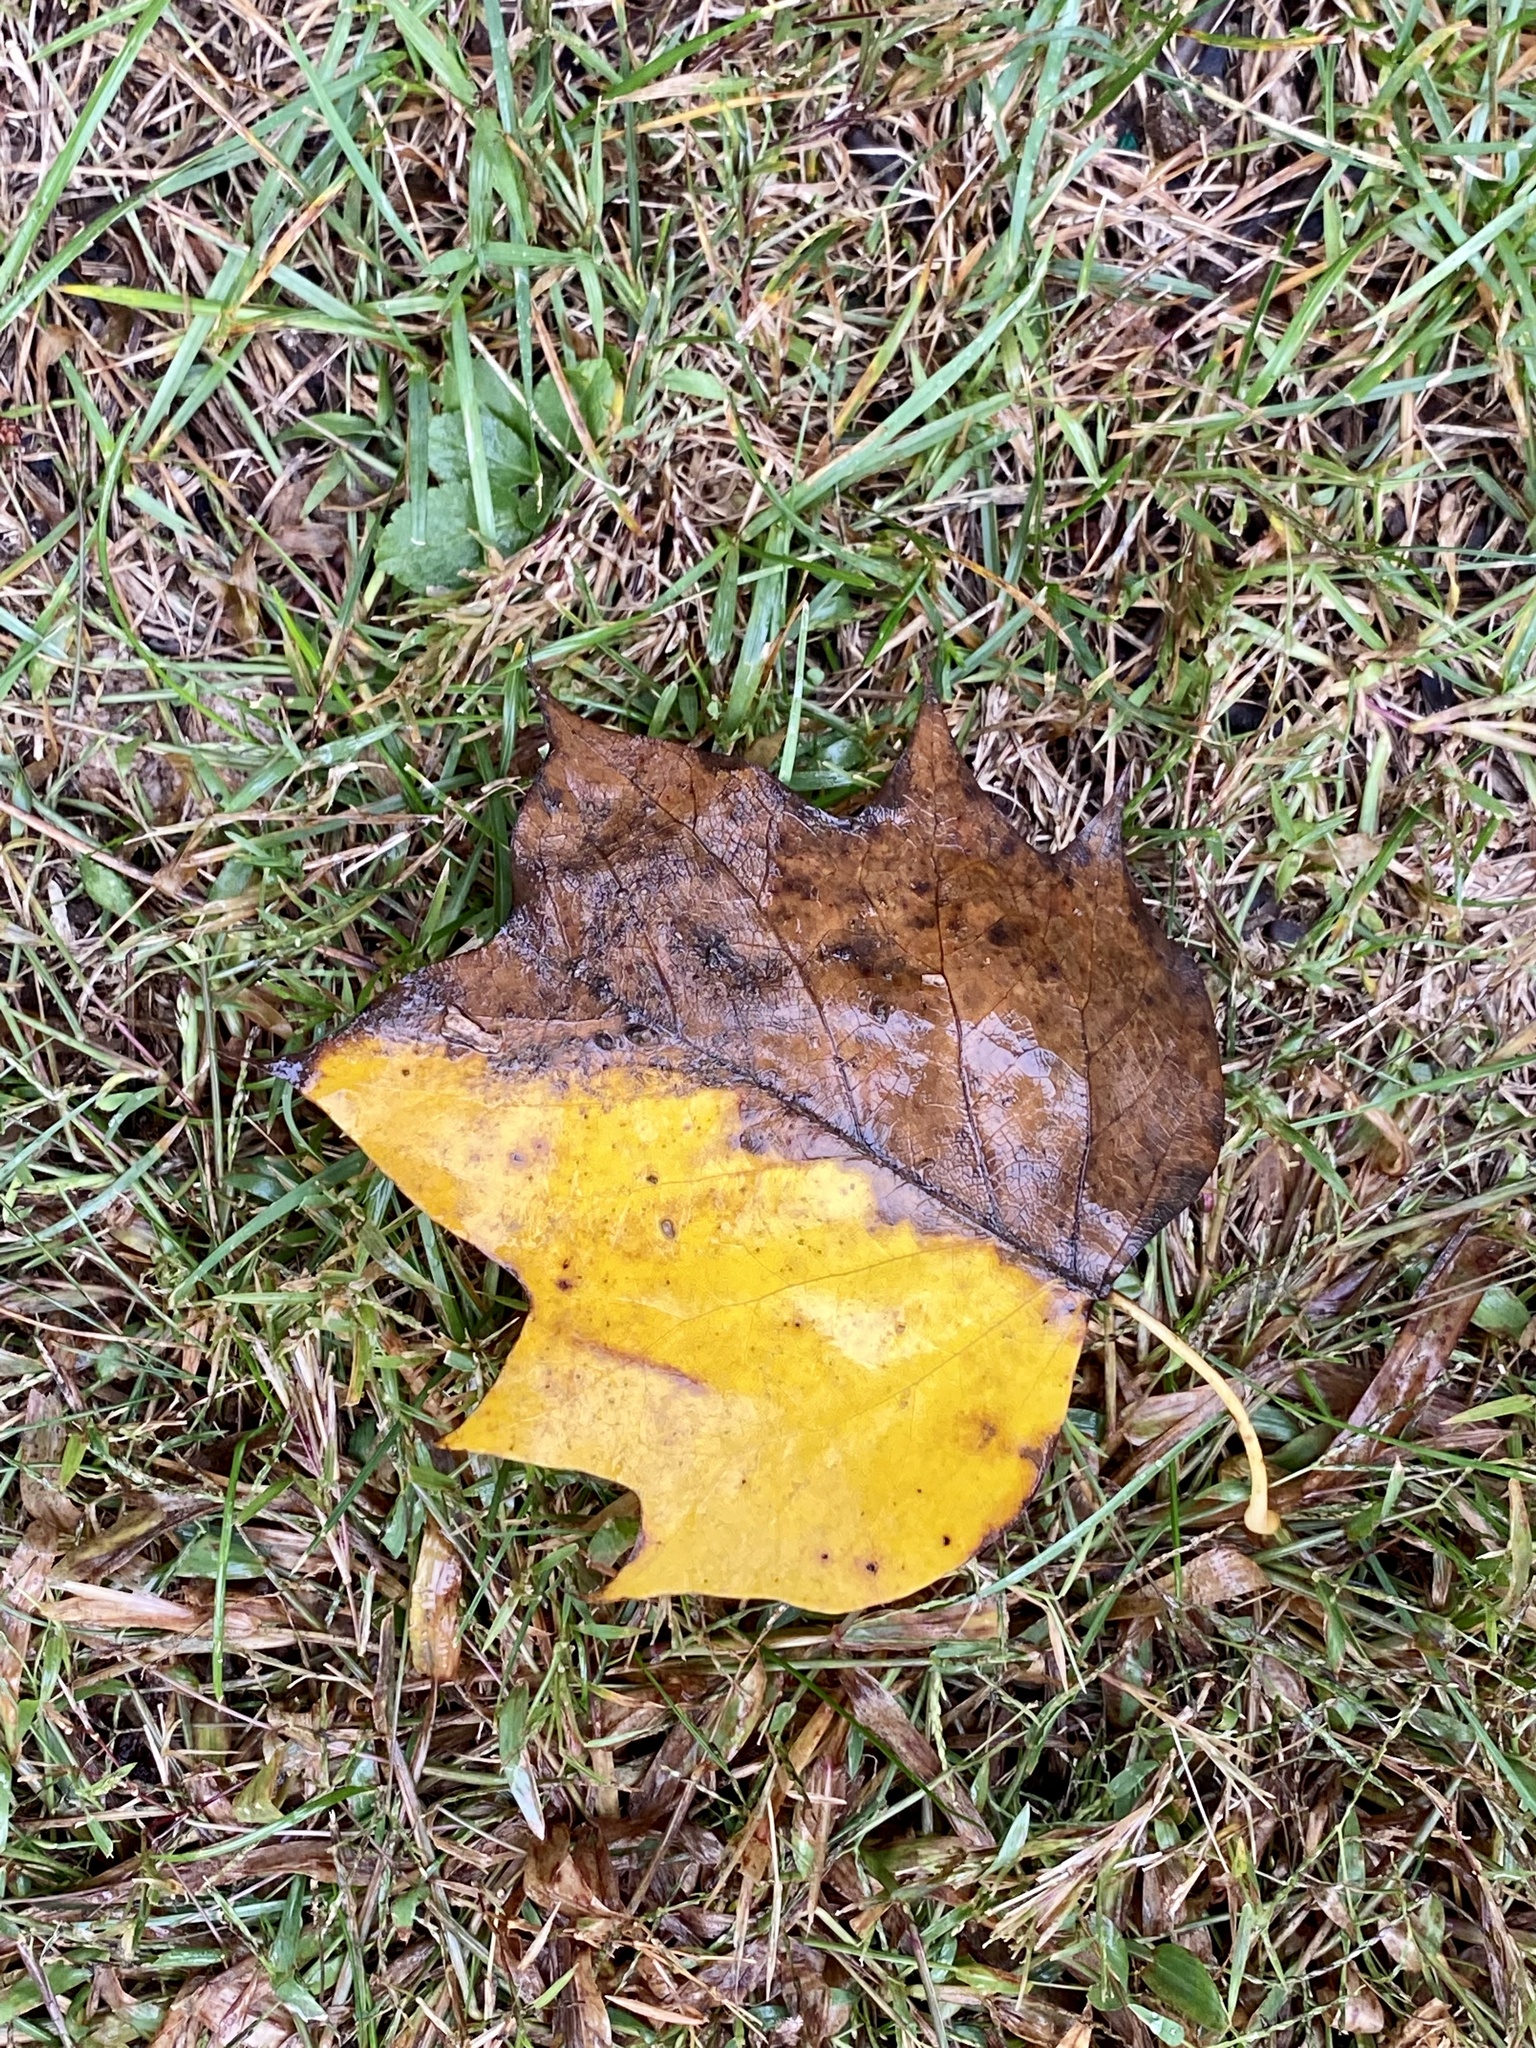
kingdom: Plantae
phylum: Tracheophyta
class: Magnoliopsida
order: Magnoliales
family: Magnoliaceae
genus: Liriodendron
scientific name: Liriodendron tulipifera
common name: Tulip tree
